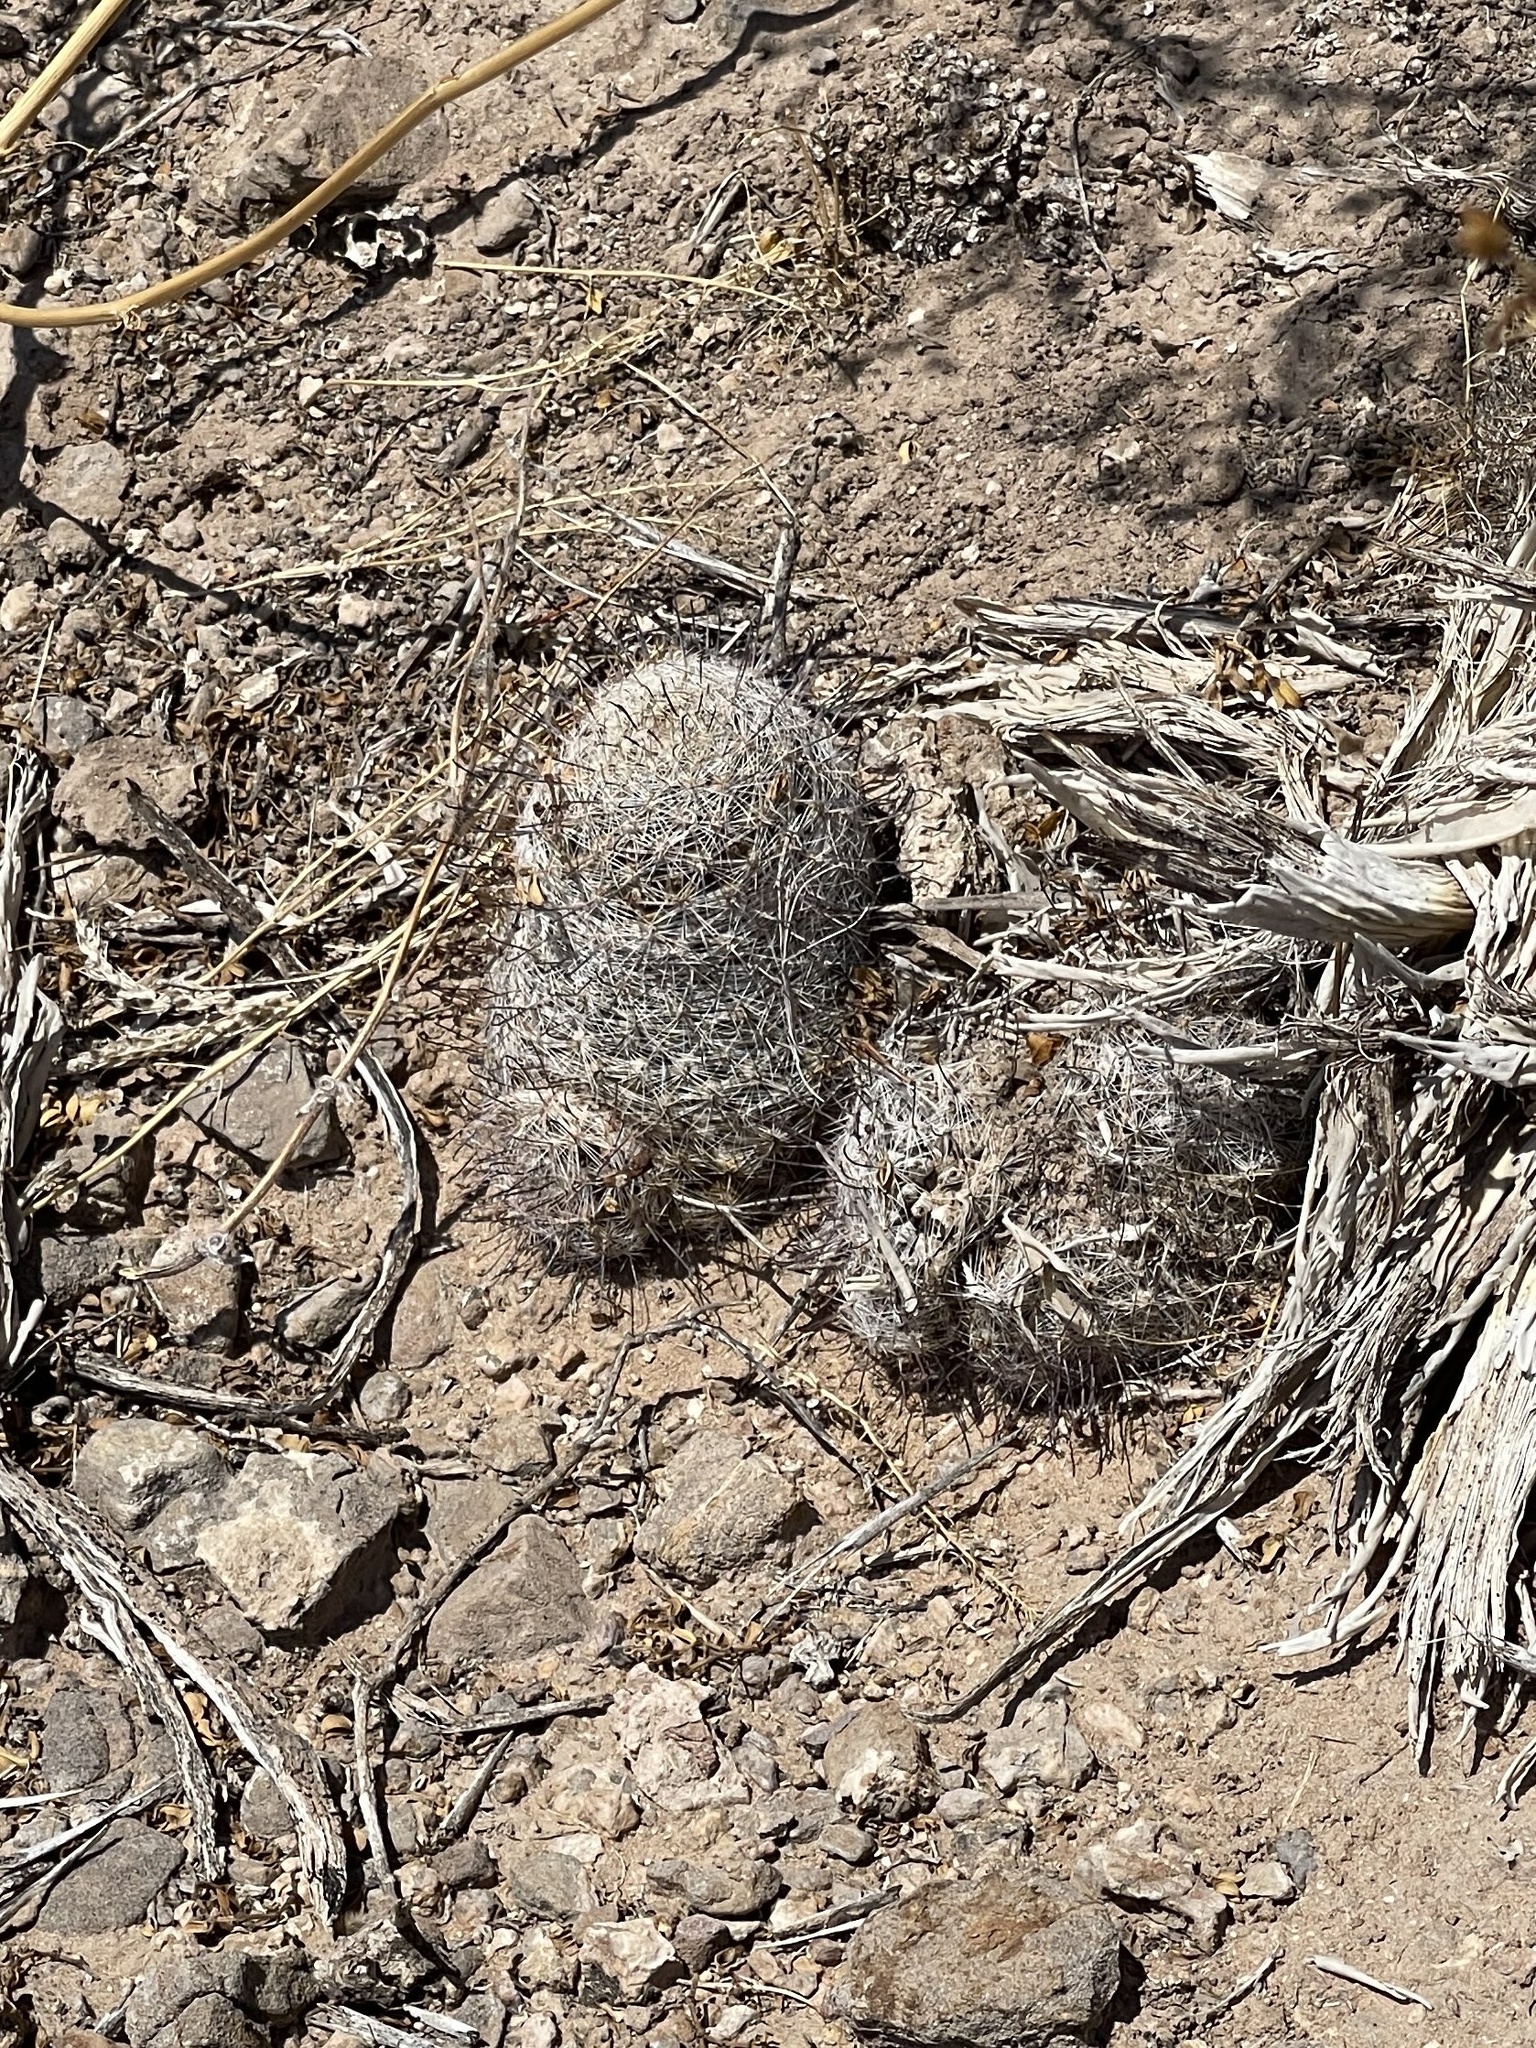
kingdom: Plantae
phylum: Tracheophyta
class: Magnoliopsida
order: Caryophyllales
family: Cactaceae
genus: Cochemiea
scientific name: Cochemiea grahamii
